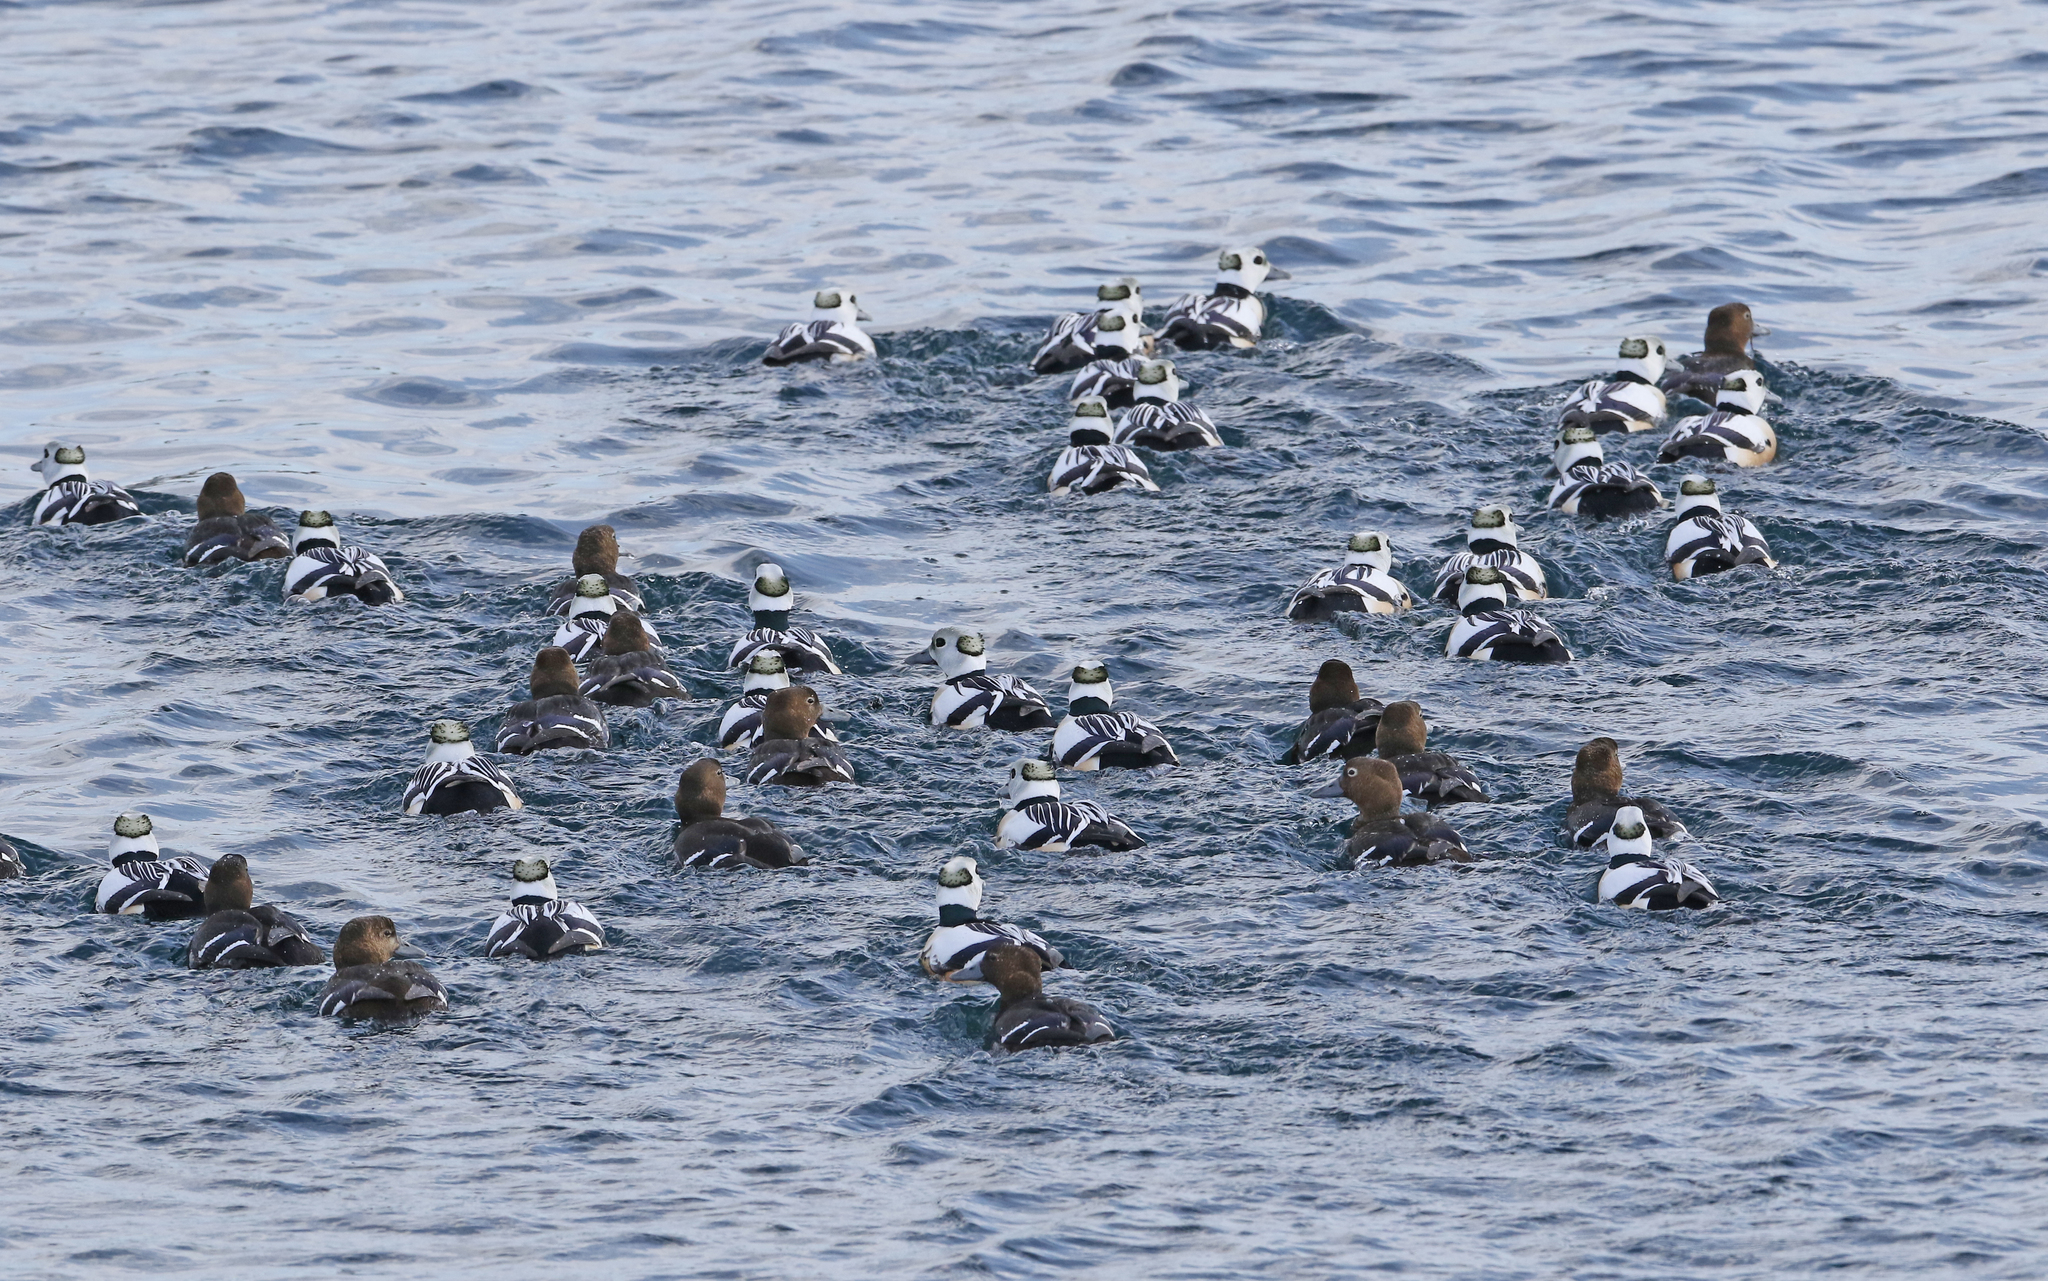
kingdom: Animalia
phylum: Chordata
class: Aves
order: Anseriformes
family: Anatidae
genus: Polysticta
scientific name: Polysticta stelleri
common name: Steller's eider
